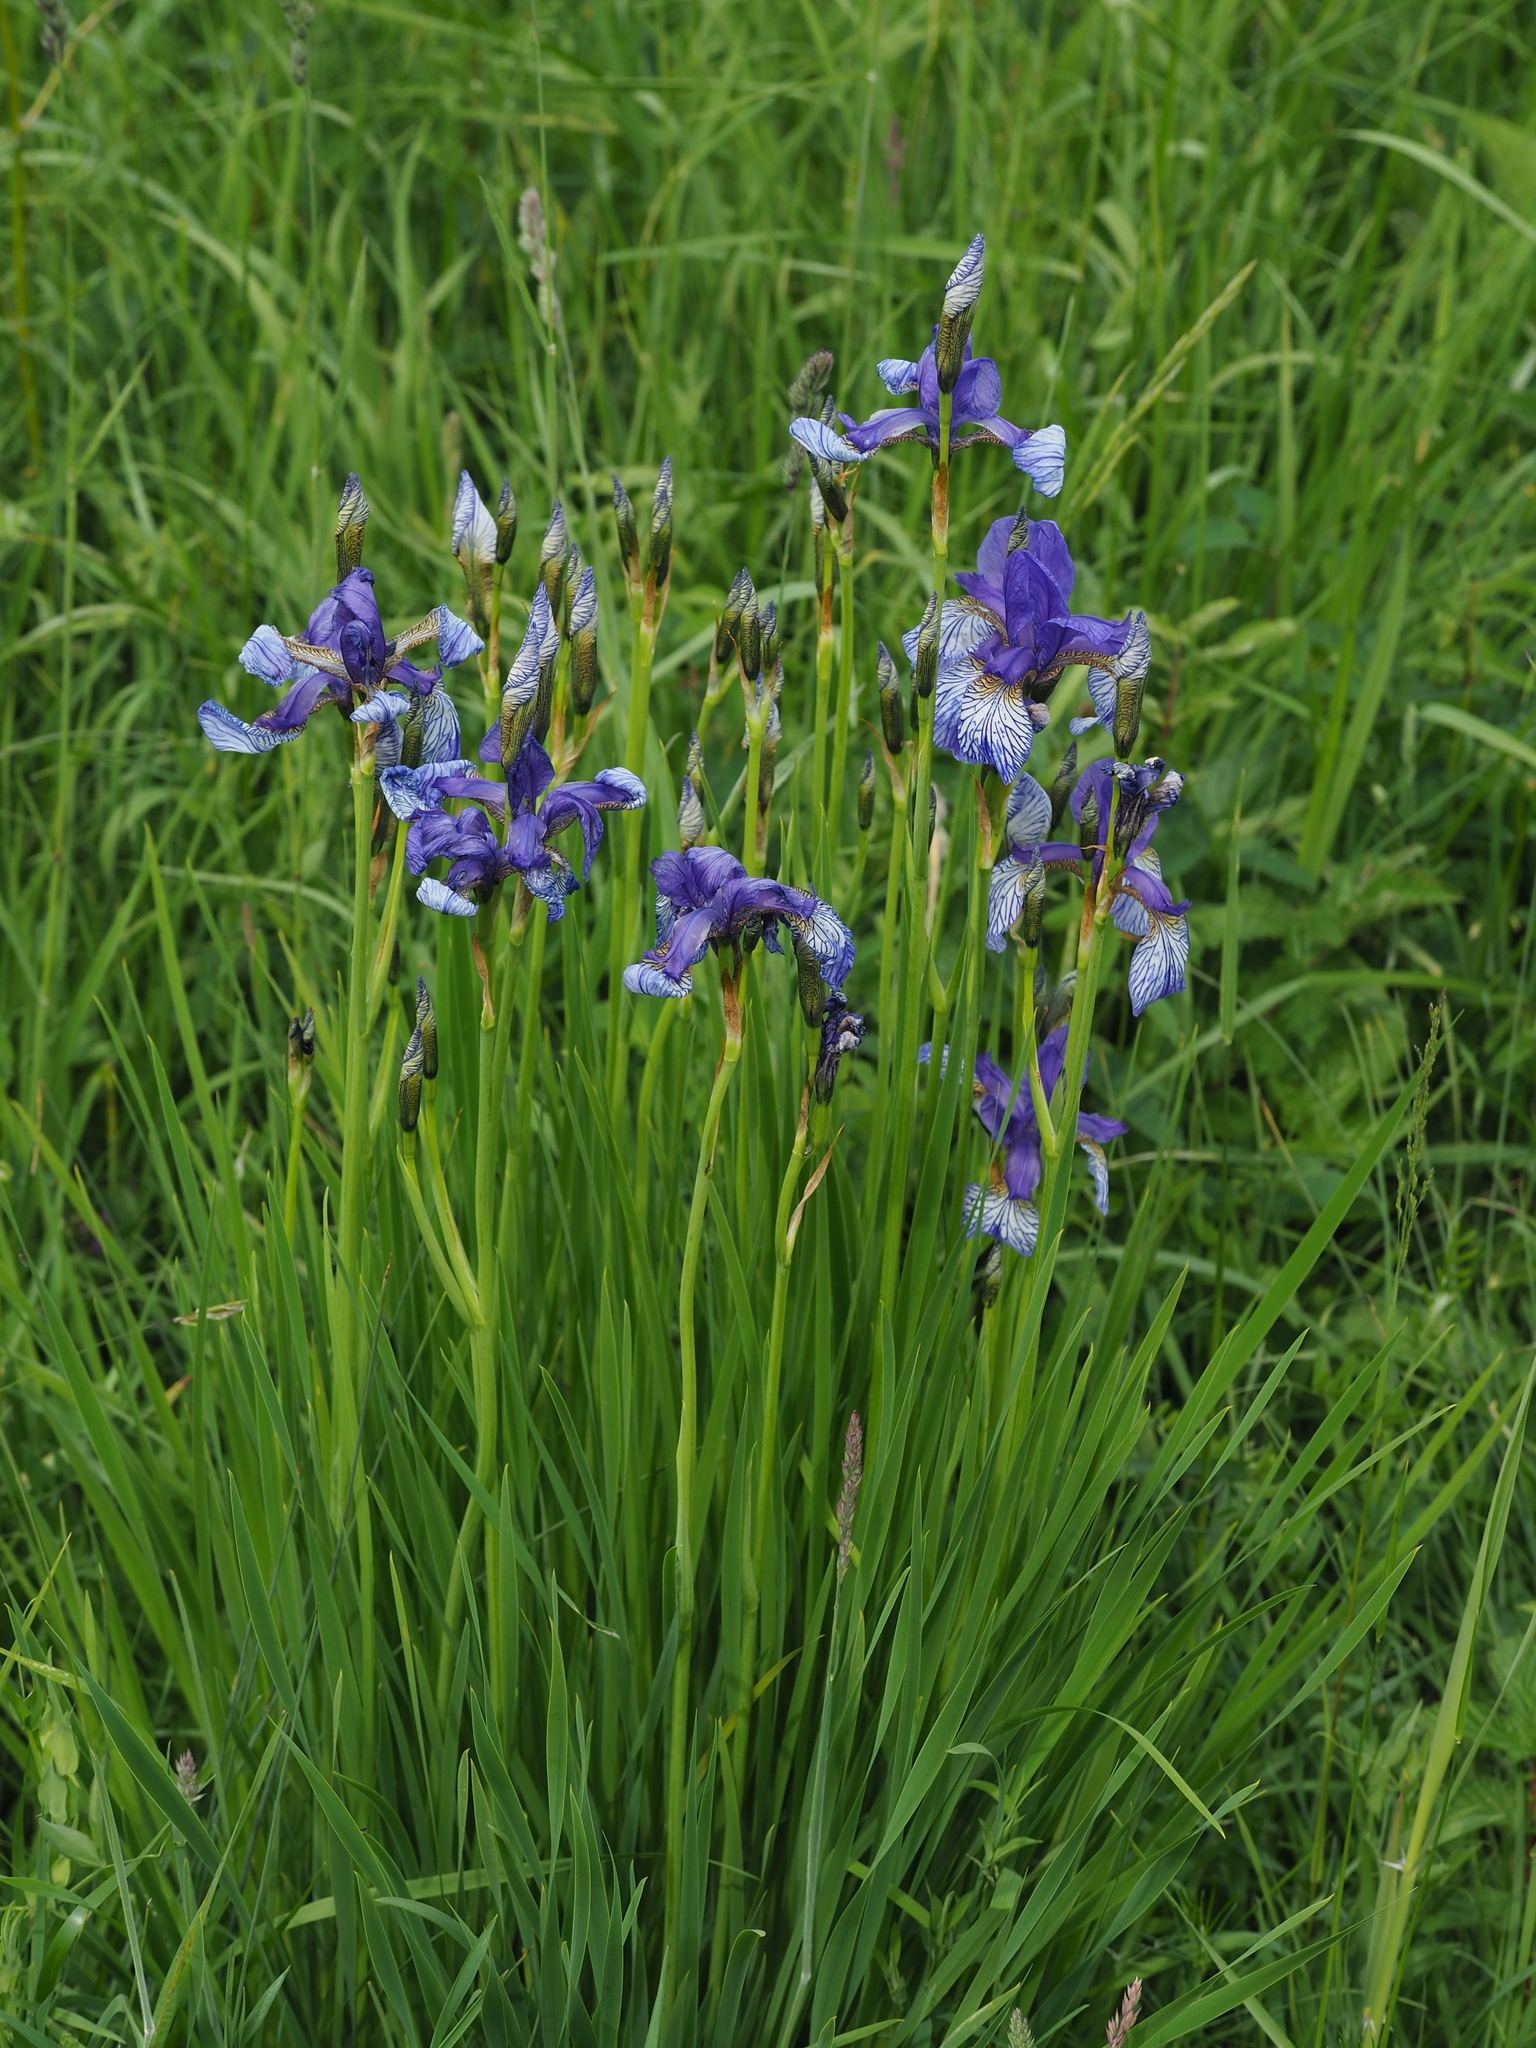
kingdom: Plantae
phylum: Tracheophyta
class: Liliopsida
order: Asparagales
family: Iridaceae
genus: Iris
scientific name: Iris sibirica
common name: Siberian iris
